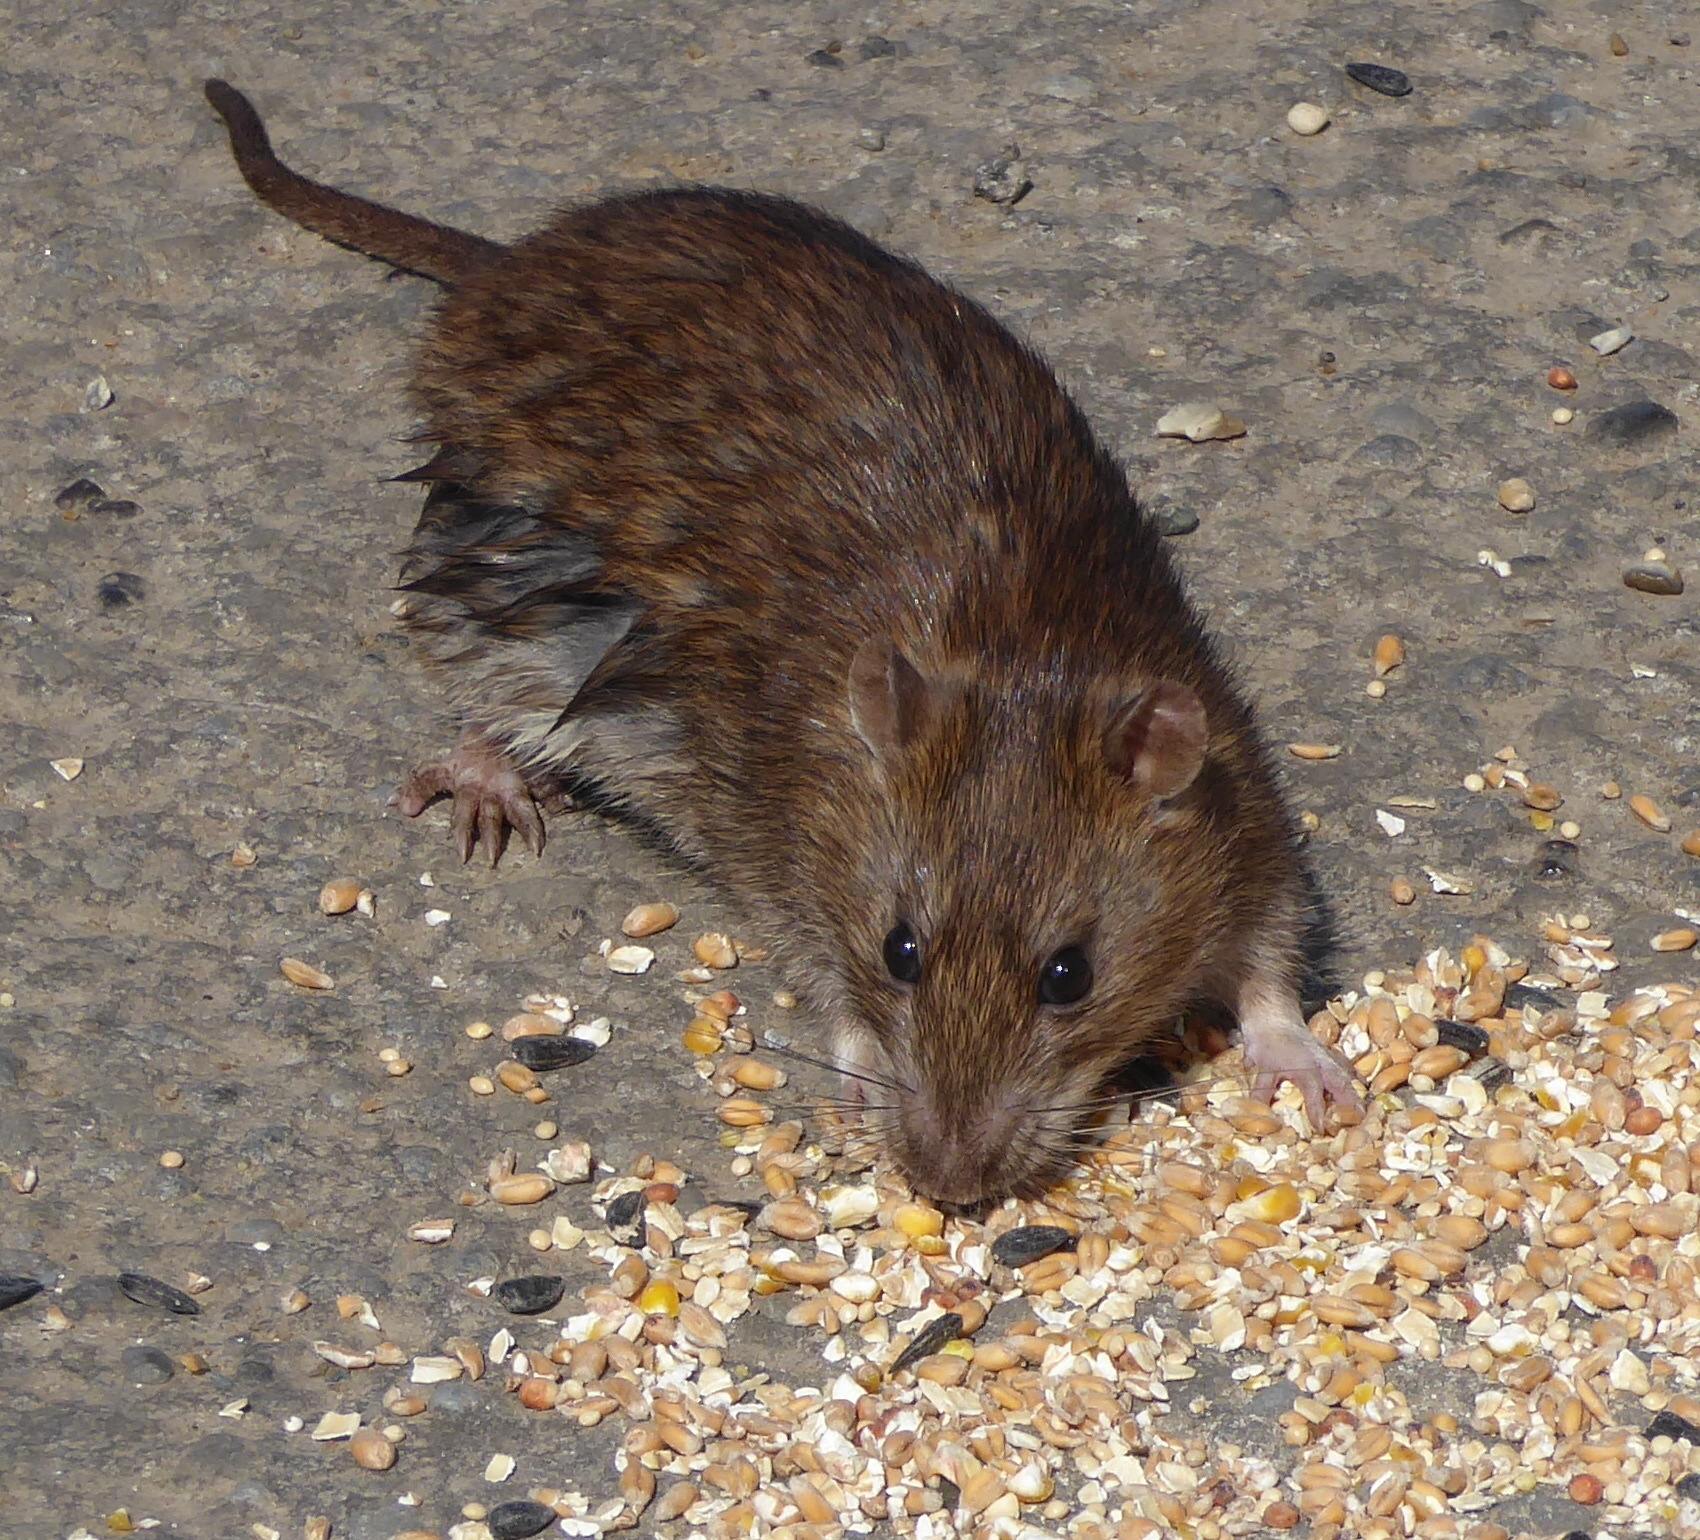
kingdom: Animalia
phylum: Chordata
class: Mammalia
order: Rodentia
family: Muridae
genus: Rattus
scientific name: Rattus norvegicus
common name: Brown rat
